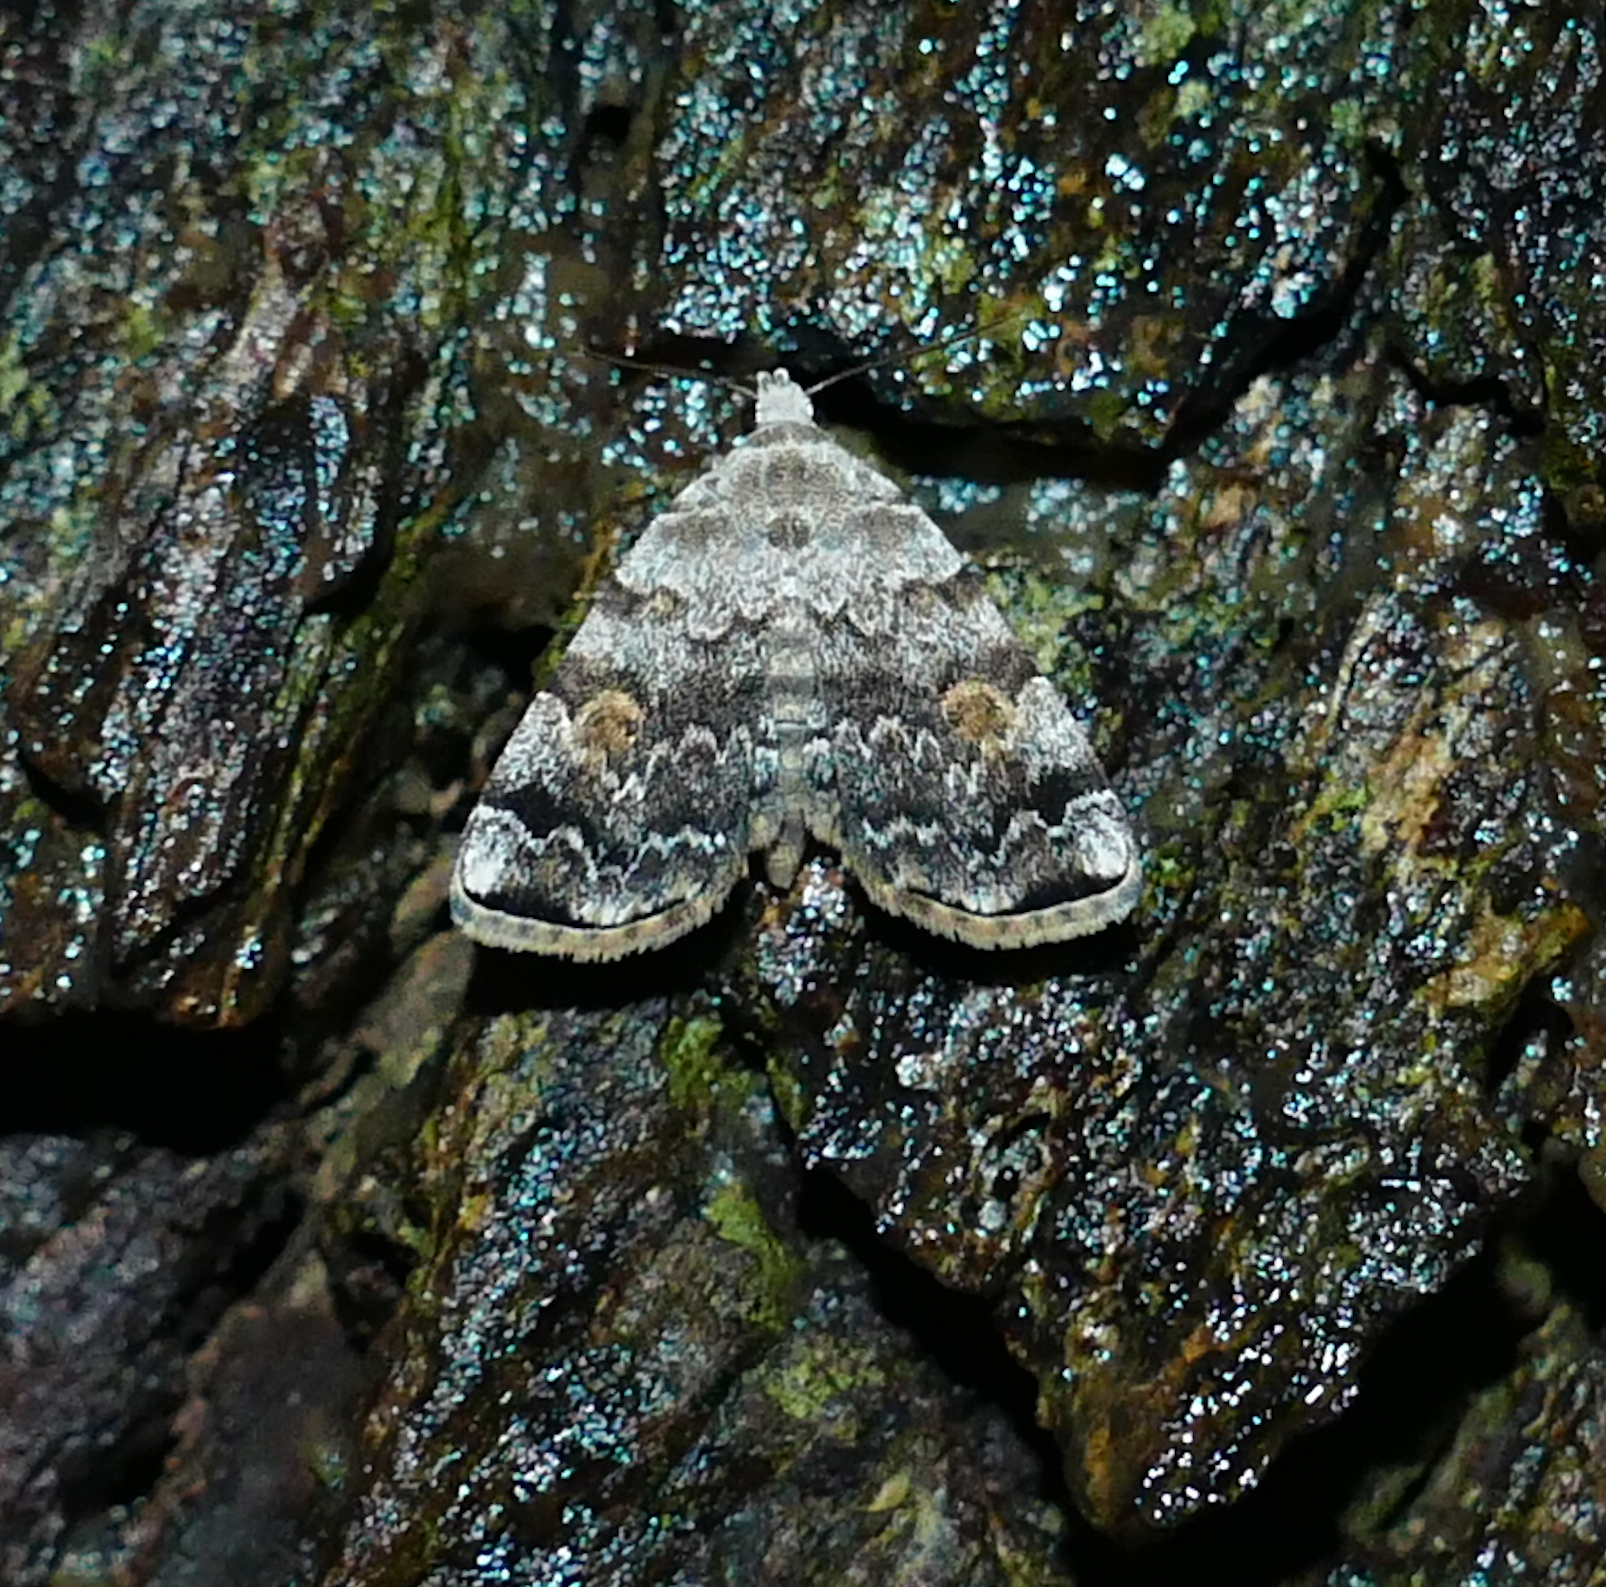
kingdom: Animalia
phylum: Arthropoda
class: Insecta
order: Lepidoptera
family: Erebidae
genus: Idia
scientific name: Idia americalis
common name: American idia moth
